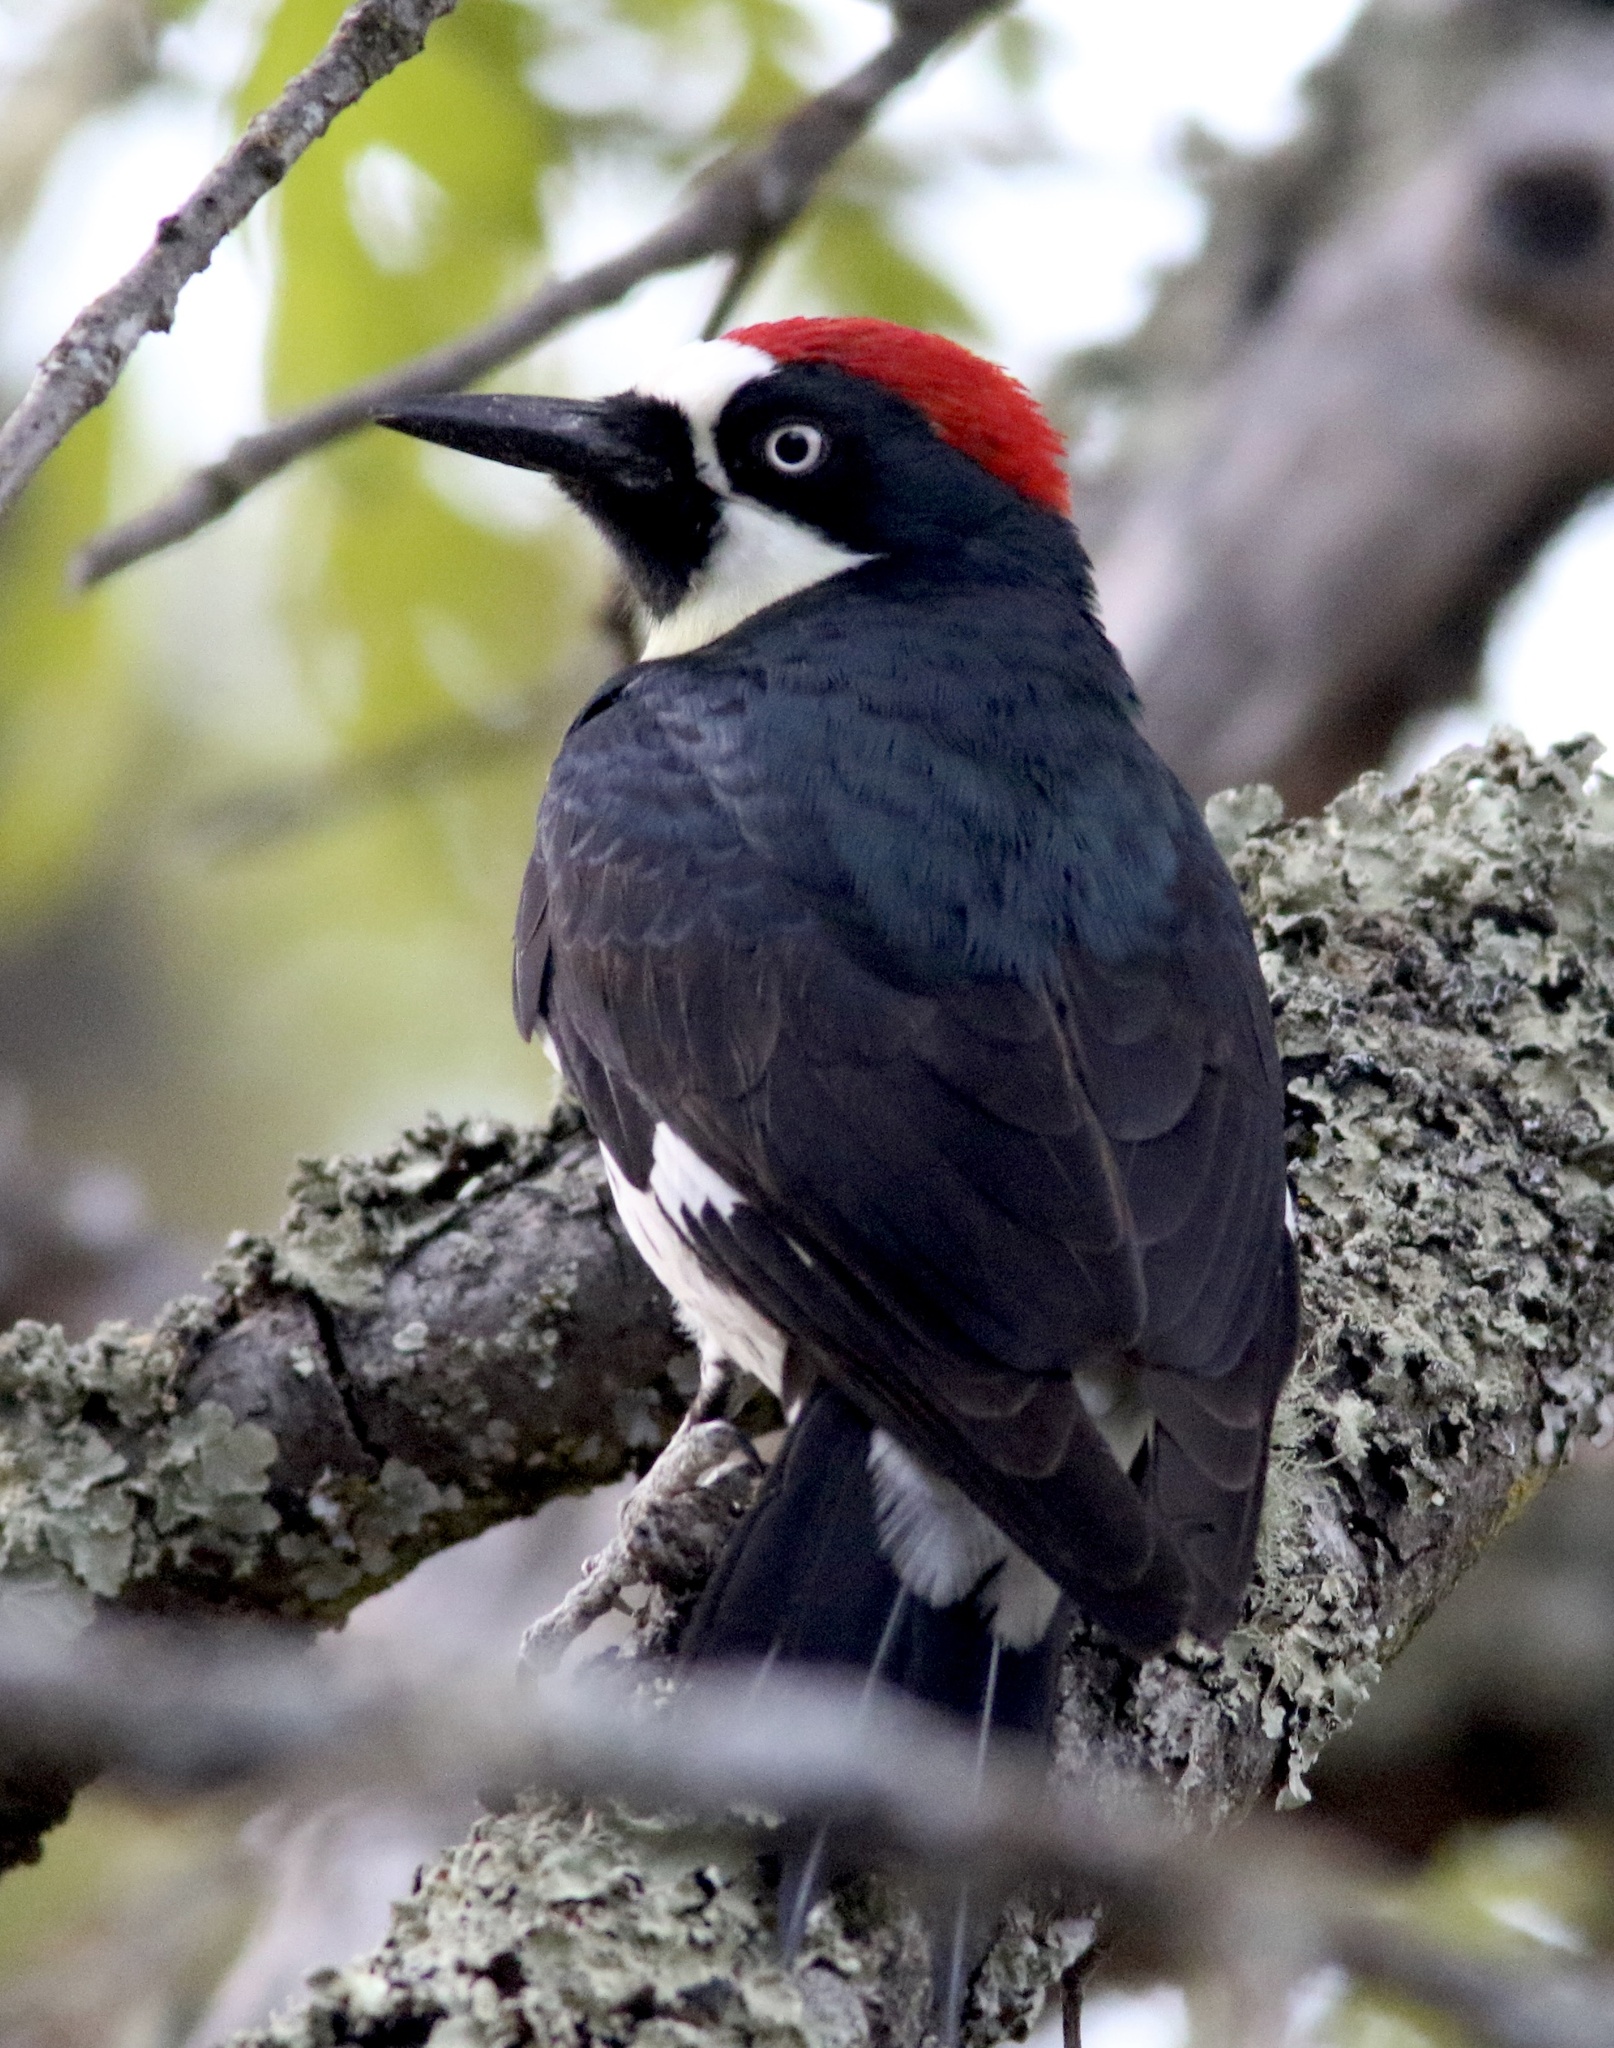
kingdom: Animalia
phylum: Chordata
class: Aves
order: Piciformes
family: Picidae
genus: Melanerpes
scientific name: Melanerpes formicivorus
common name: Acorn woodpecker
